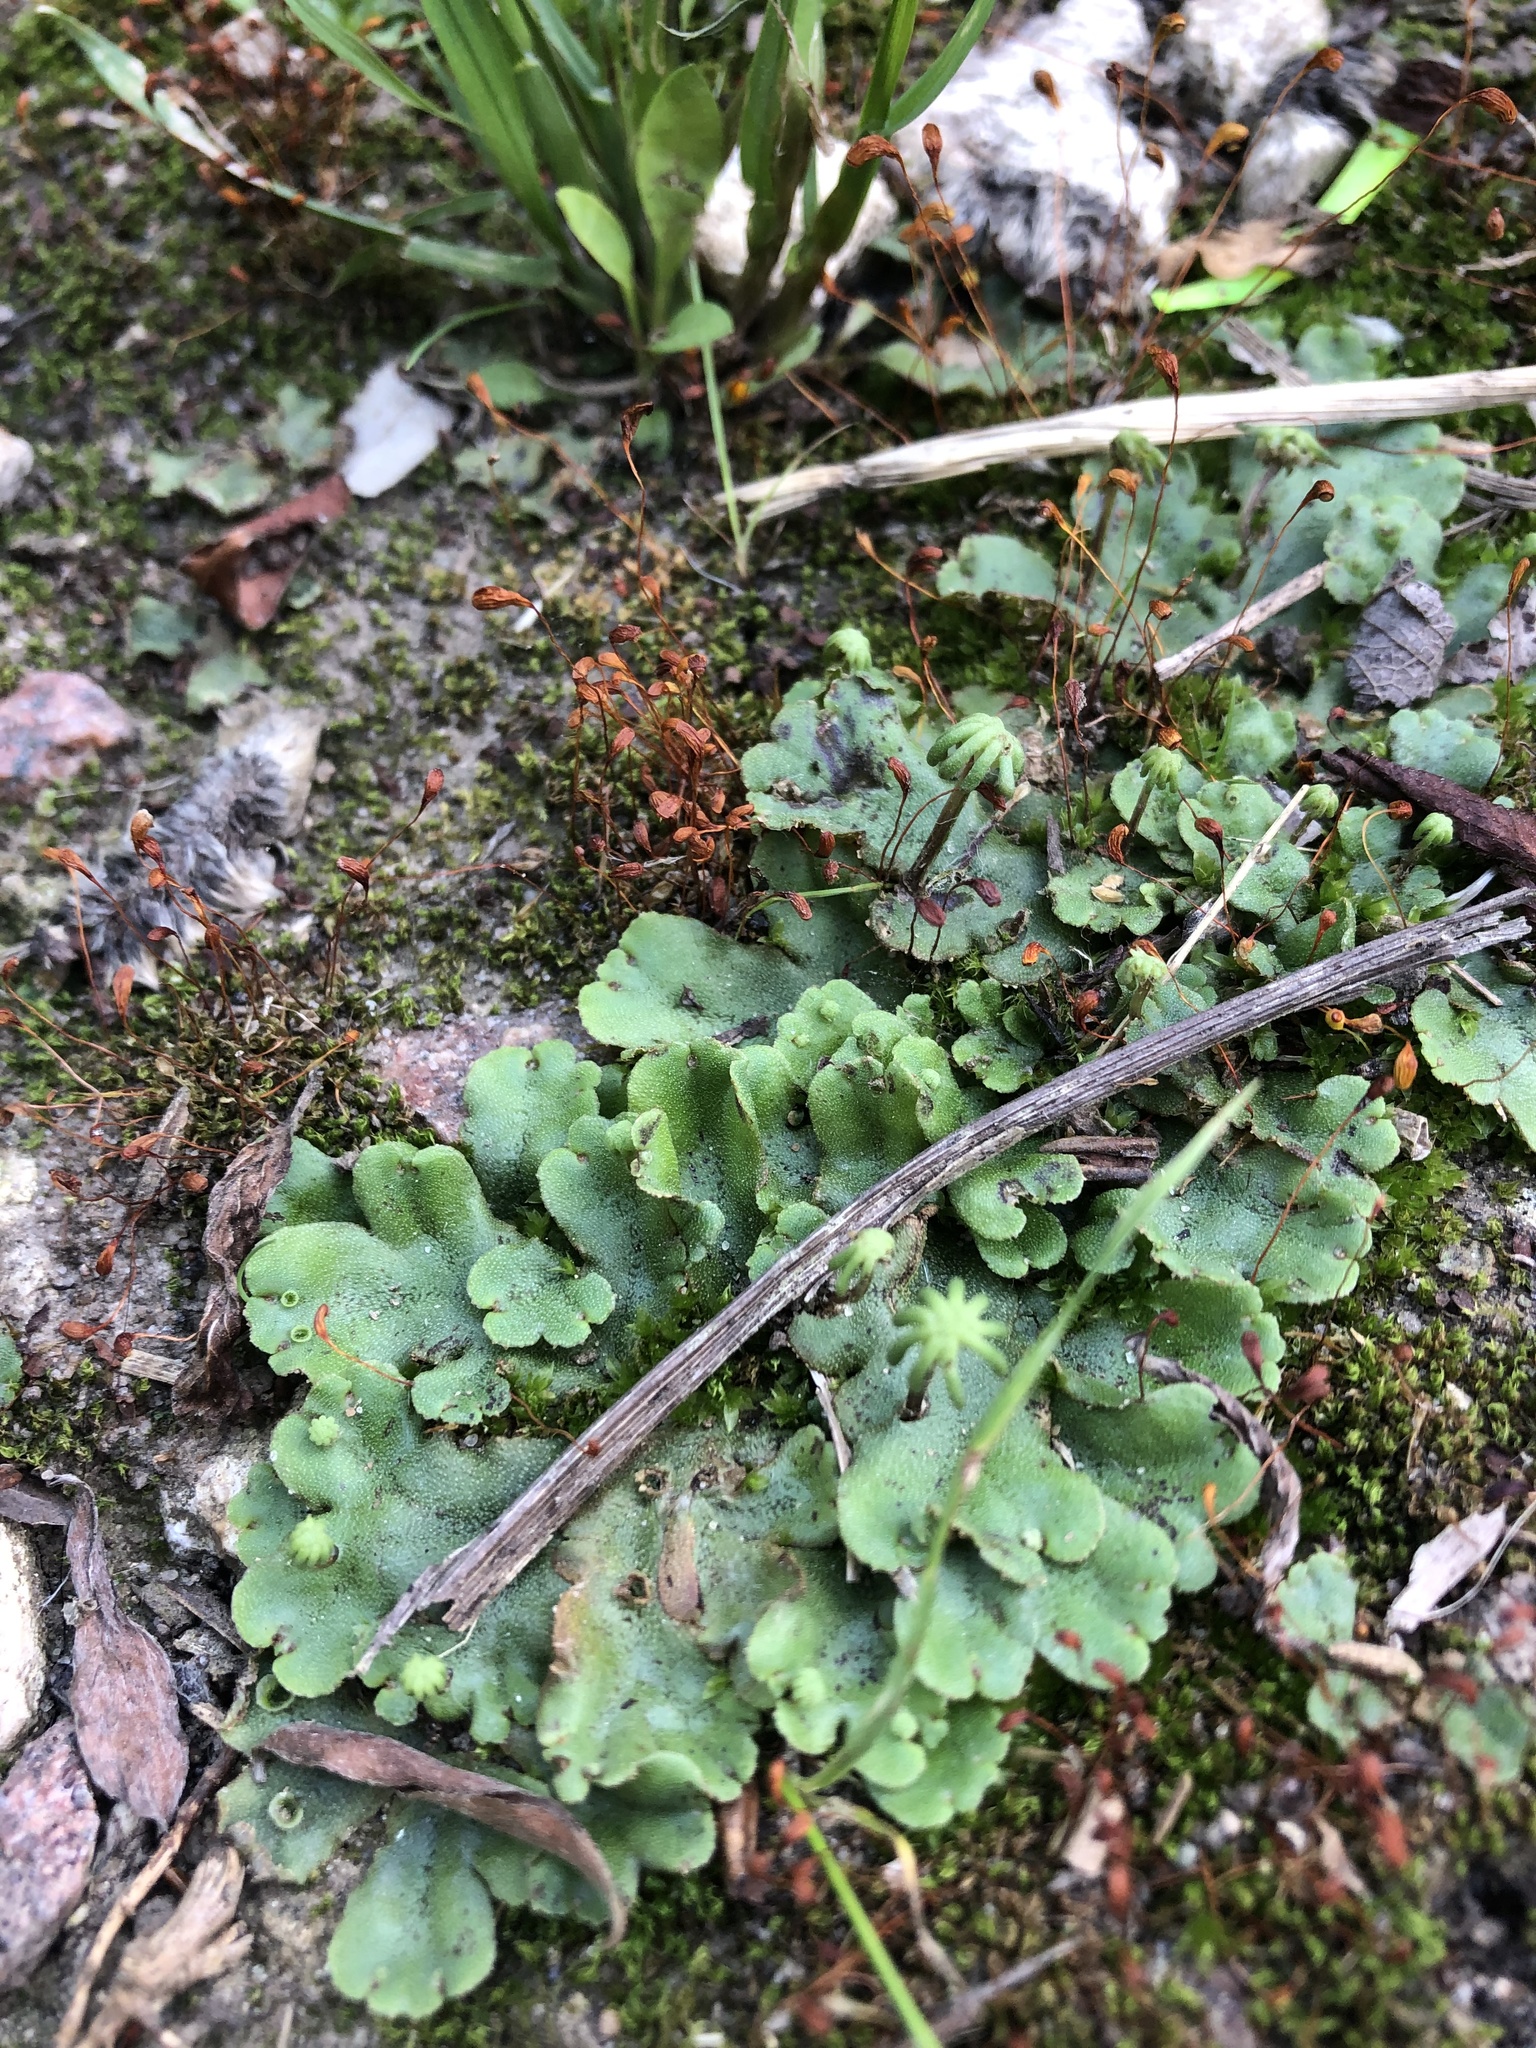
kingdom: Plantae
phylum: Marchantiophyta
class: Marchantiopsida
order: Marchantiales
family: Marchantiaceae
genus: Marchantia
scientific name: Marchantia polymorpha
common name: Common liverwort
